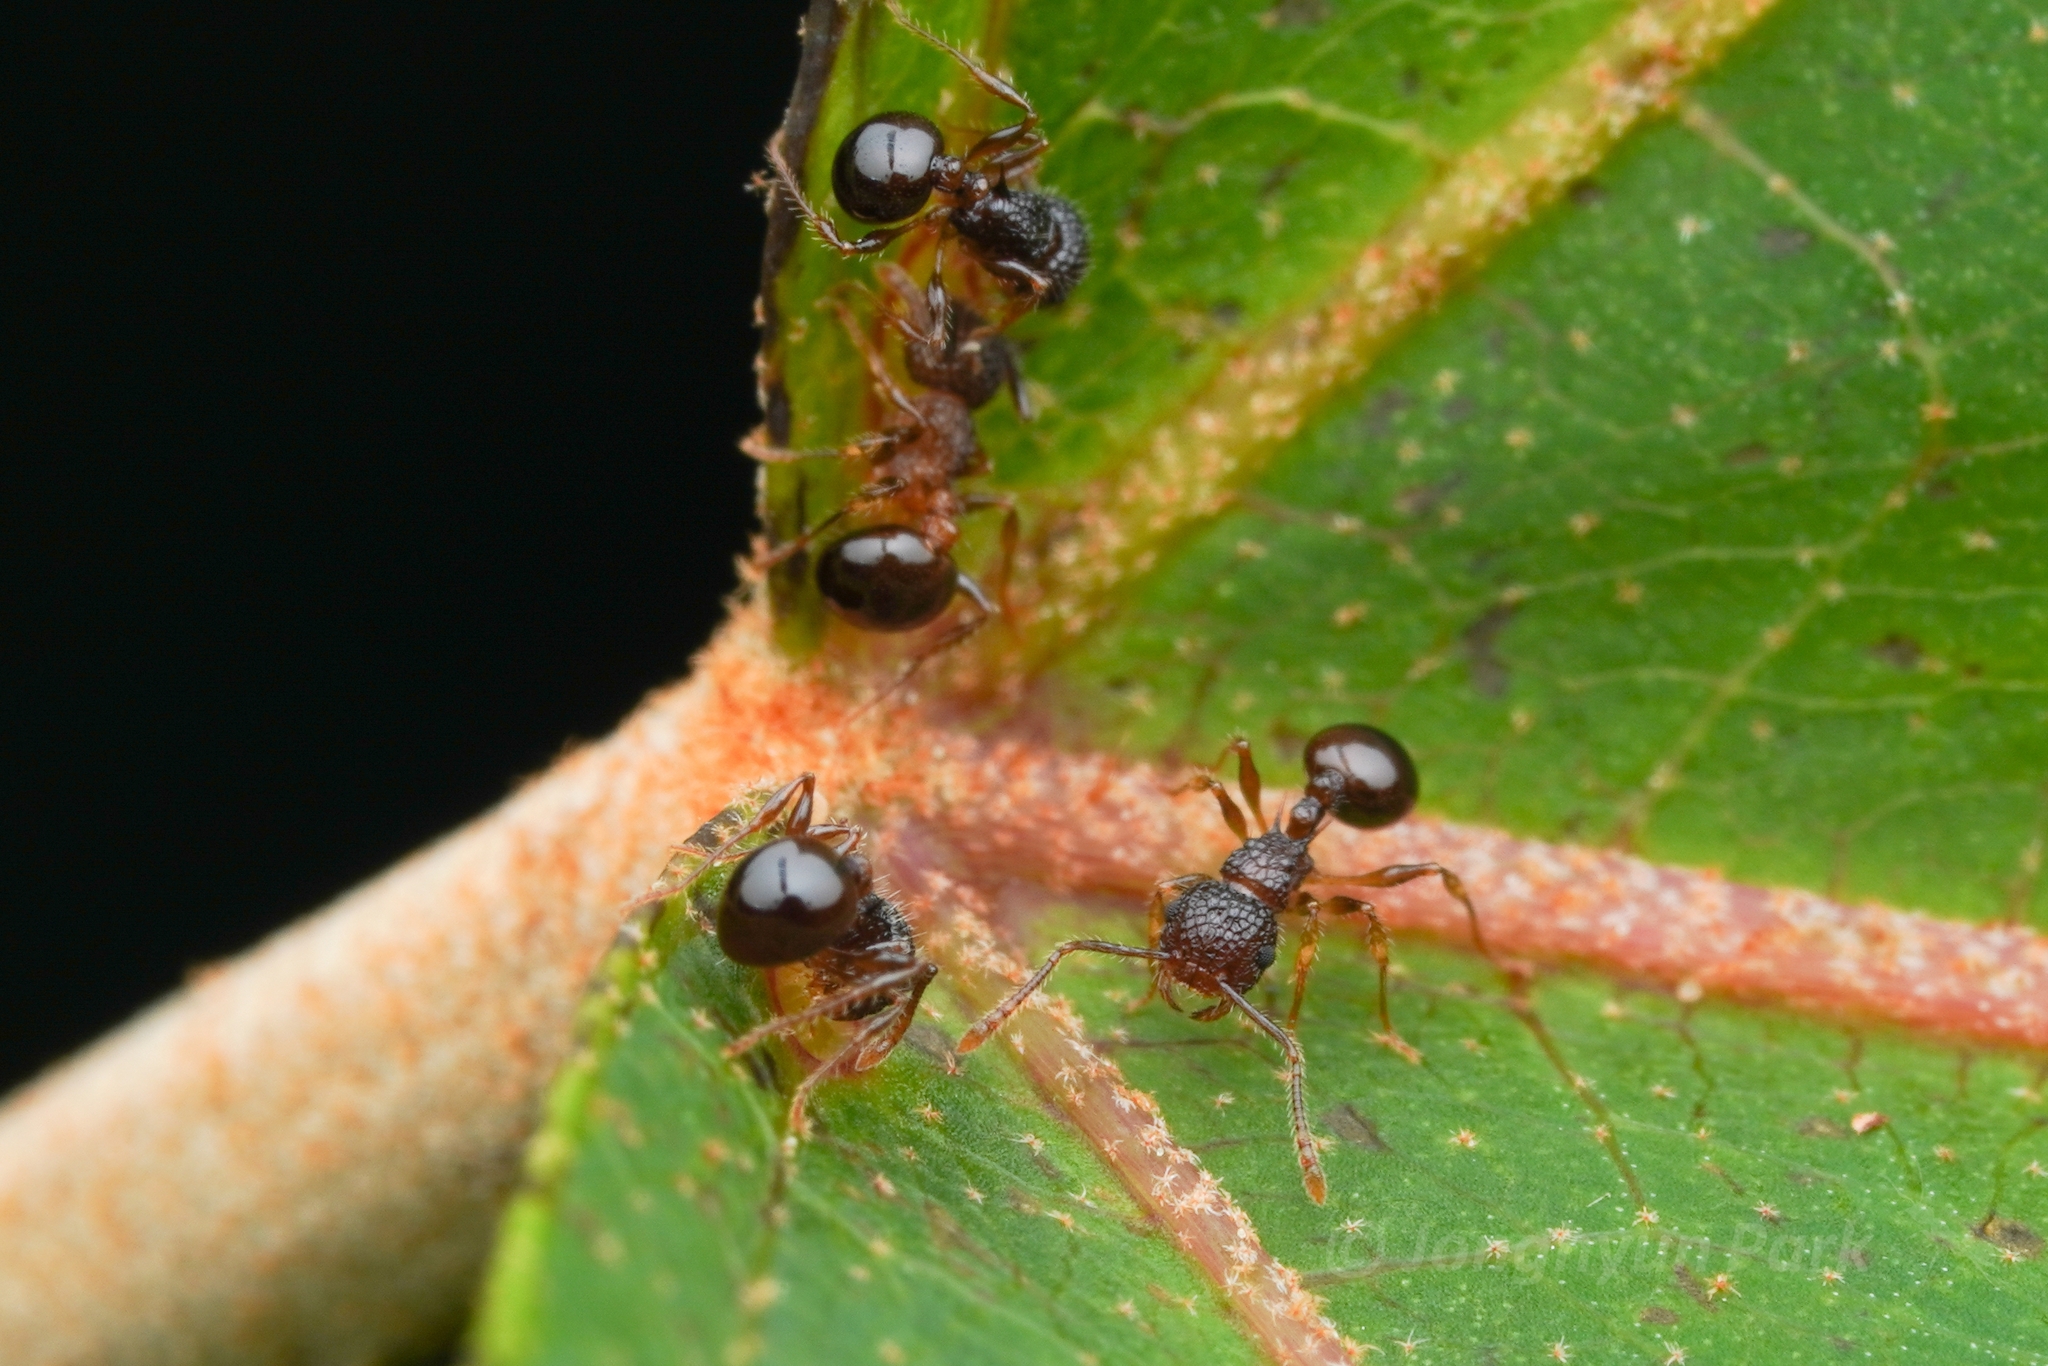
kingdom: Animalia
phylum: Arthropoda
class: Insecta
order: Hymenoptera
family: Formicidae
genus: Pristomyrmex
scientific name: Pristomyrmex punctatus
